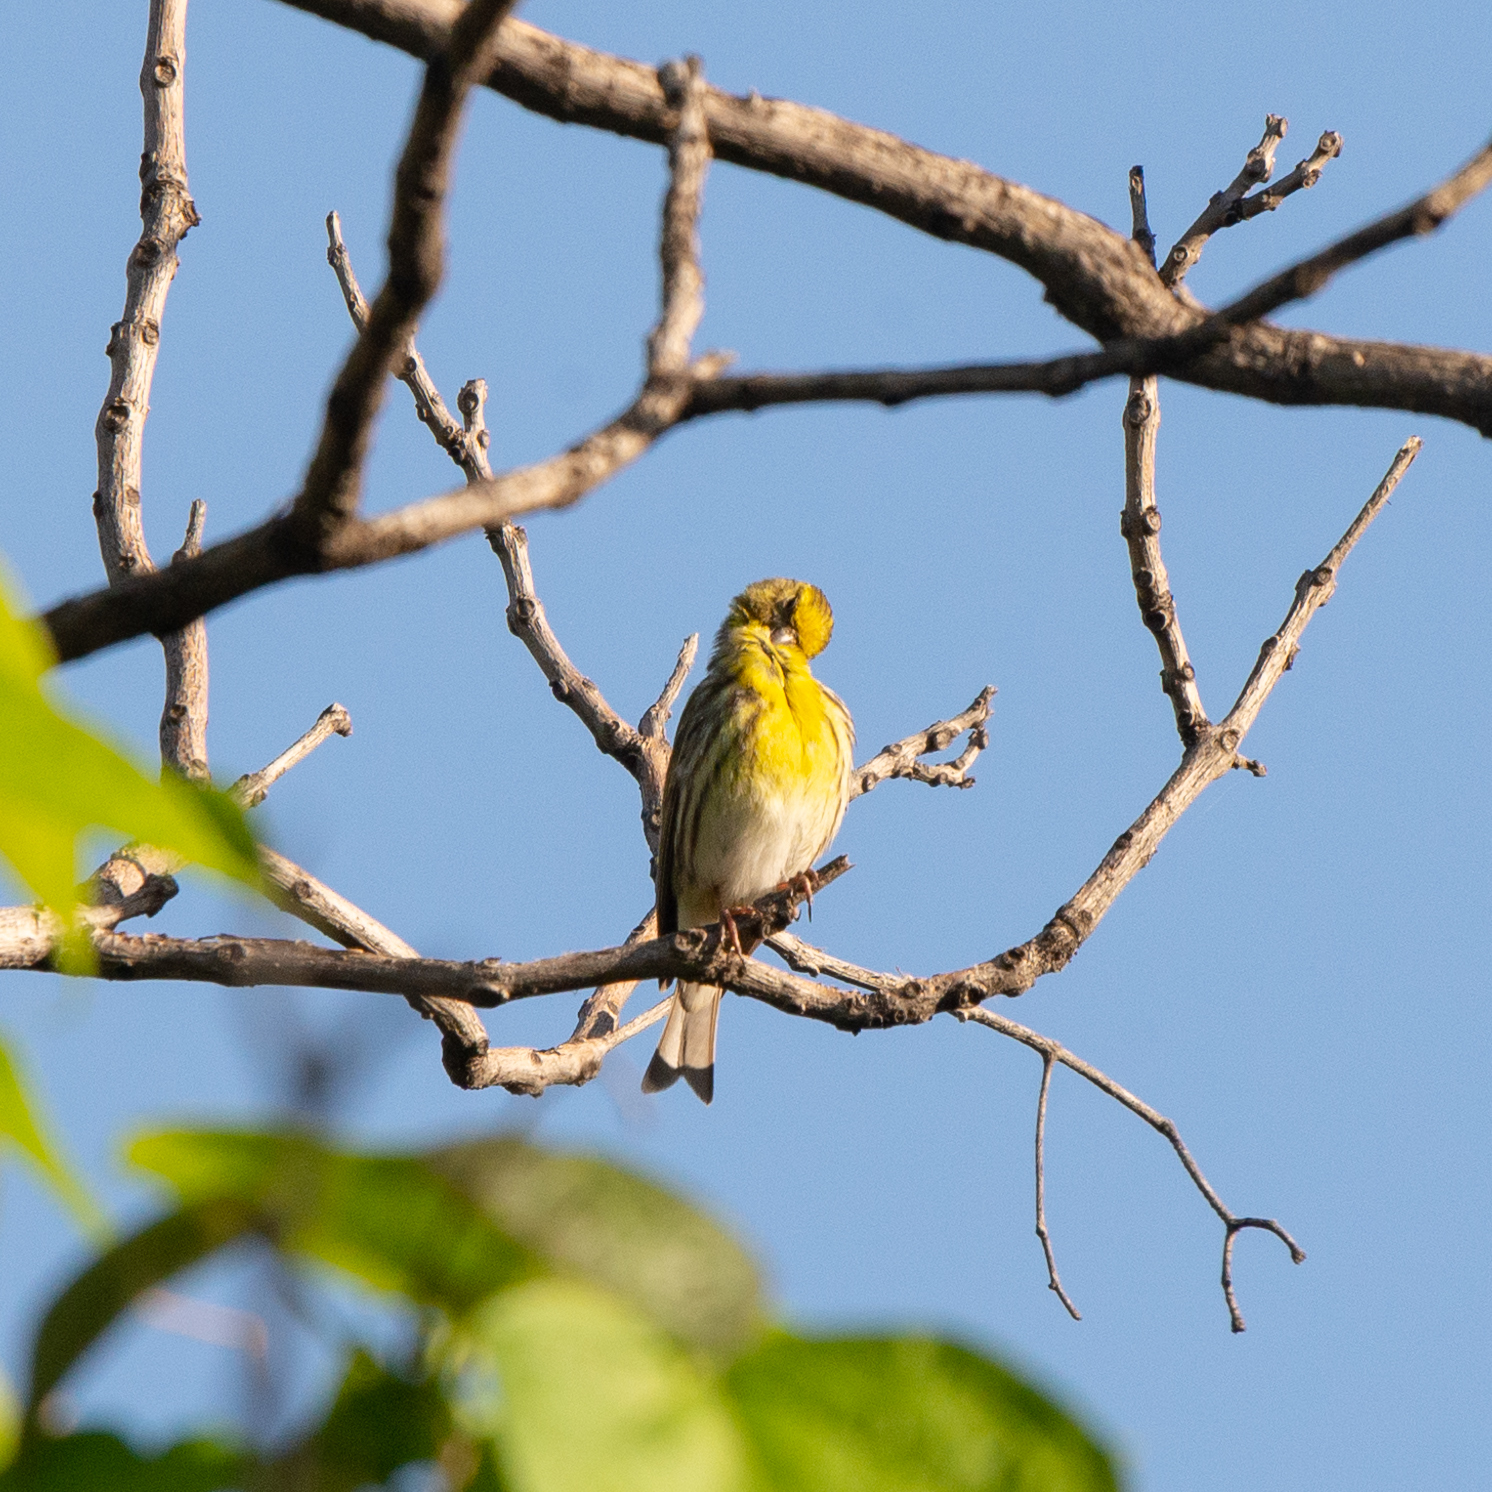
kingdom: Animalia
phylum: Chordata
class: Aves
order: Passeriformes
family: Fringillidae
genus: Serinus
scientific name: Serinus serinus
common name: European serin
